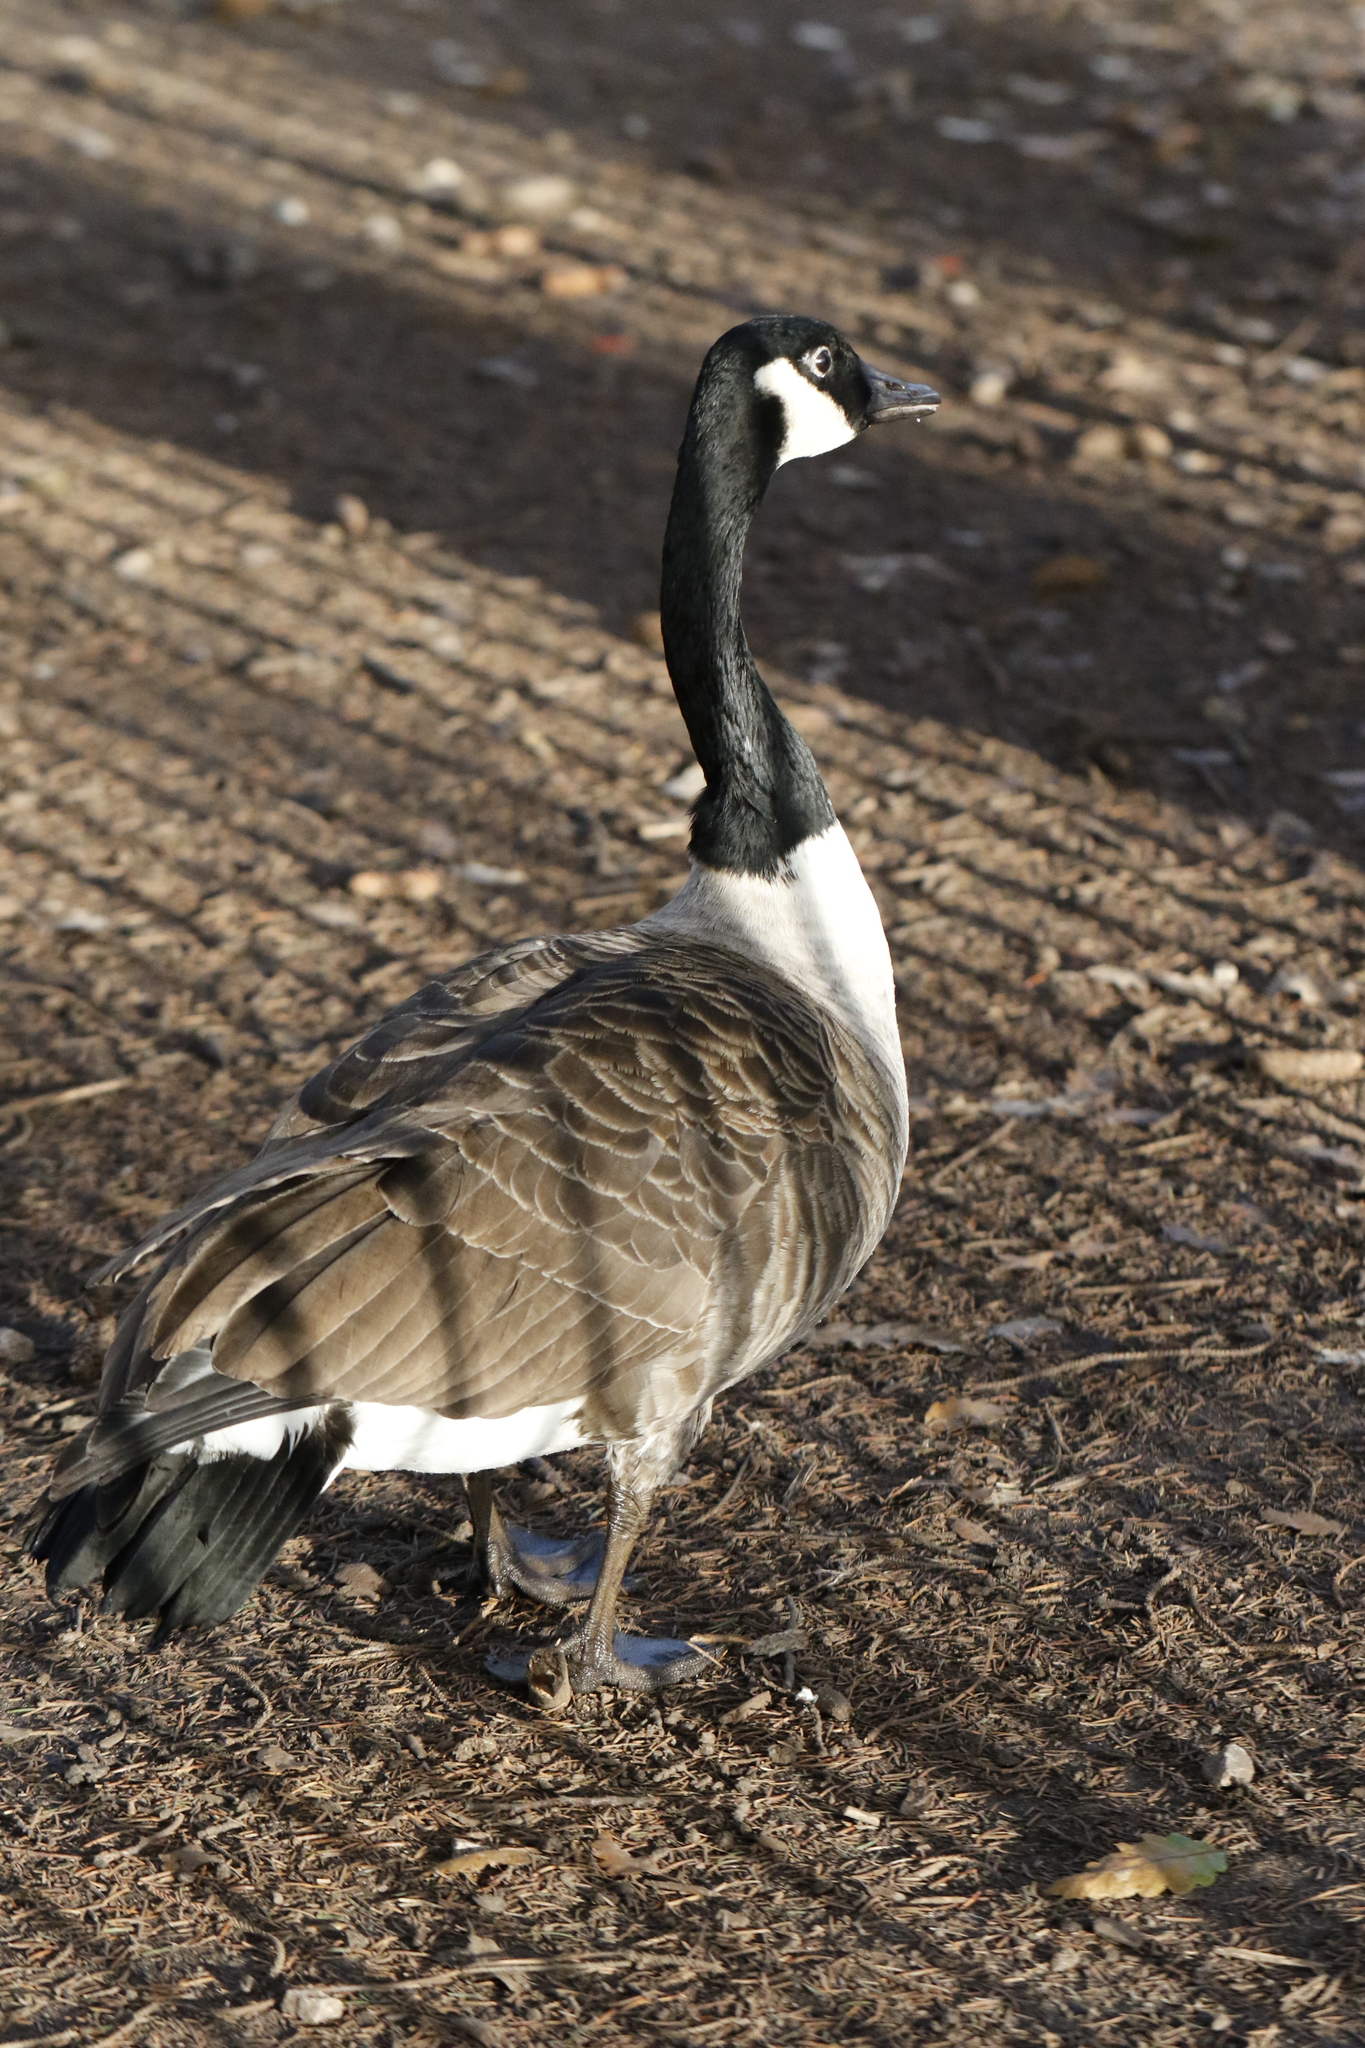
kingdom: Animalia
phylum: Chordata
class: Aves
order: Anseriformes
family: Anatidae
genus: Branta
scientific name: Branta canadensis
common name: Canada goose
